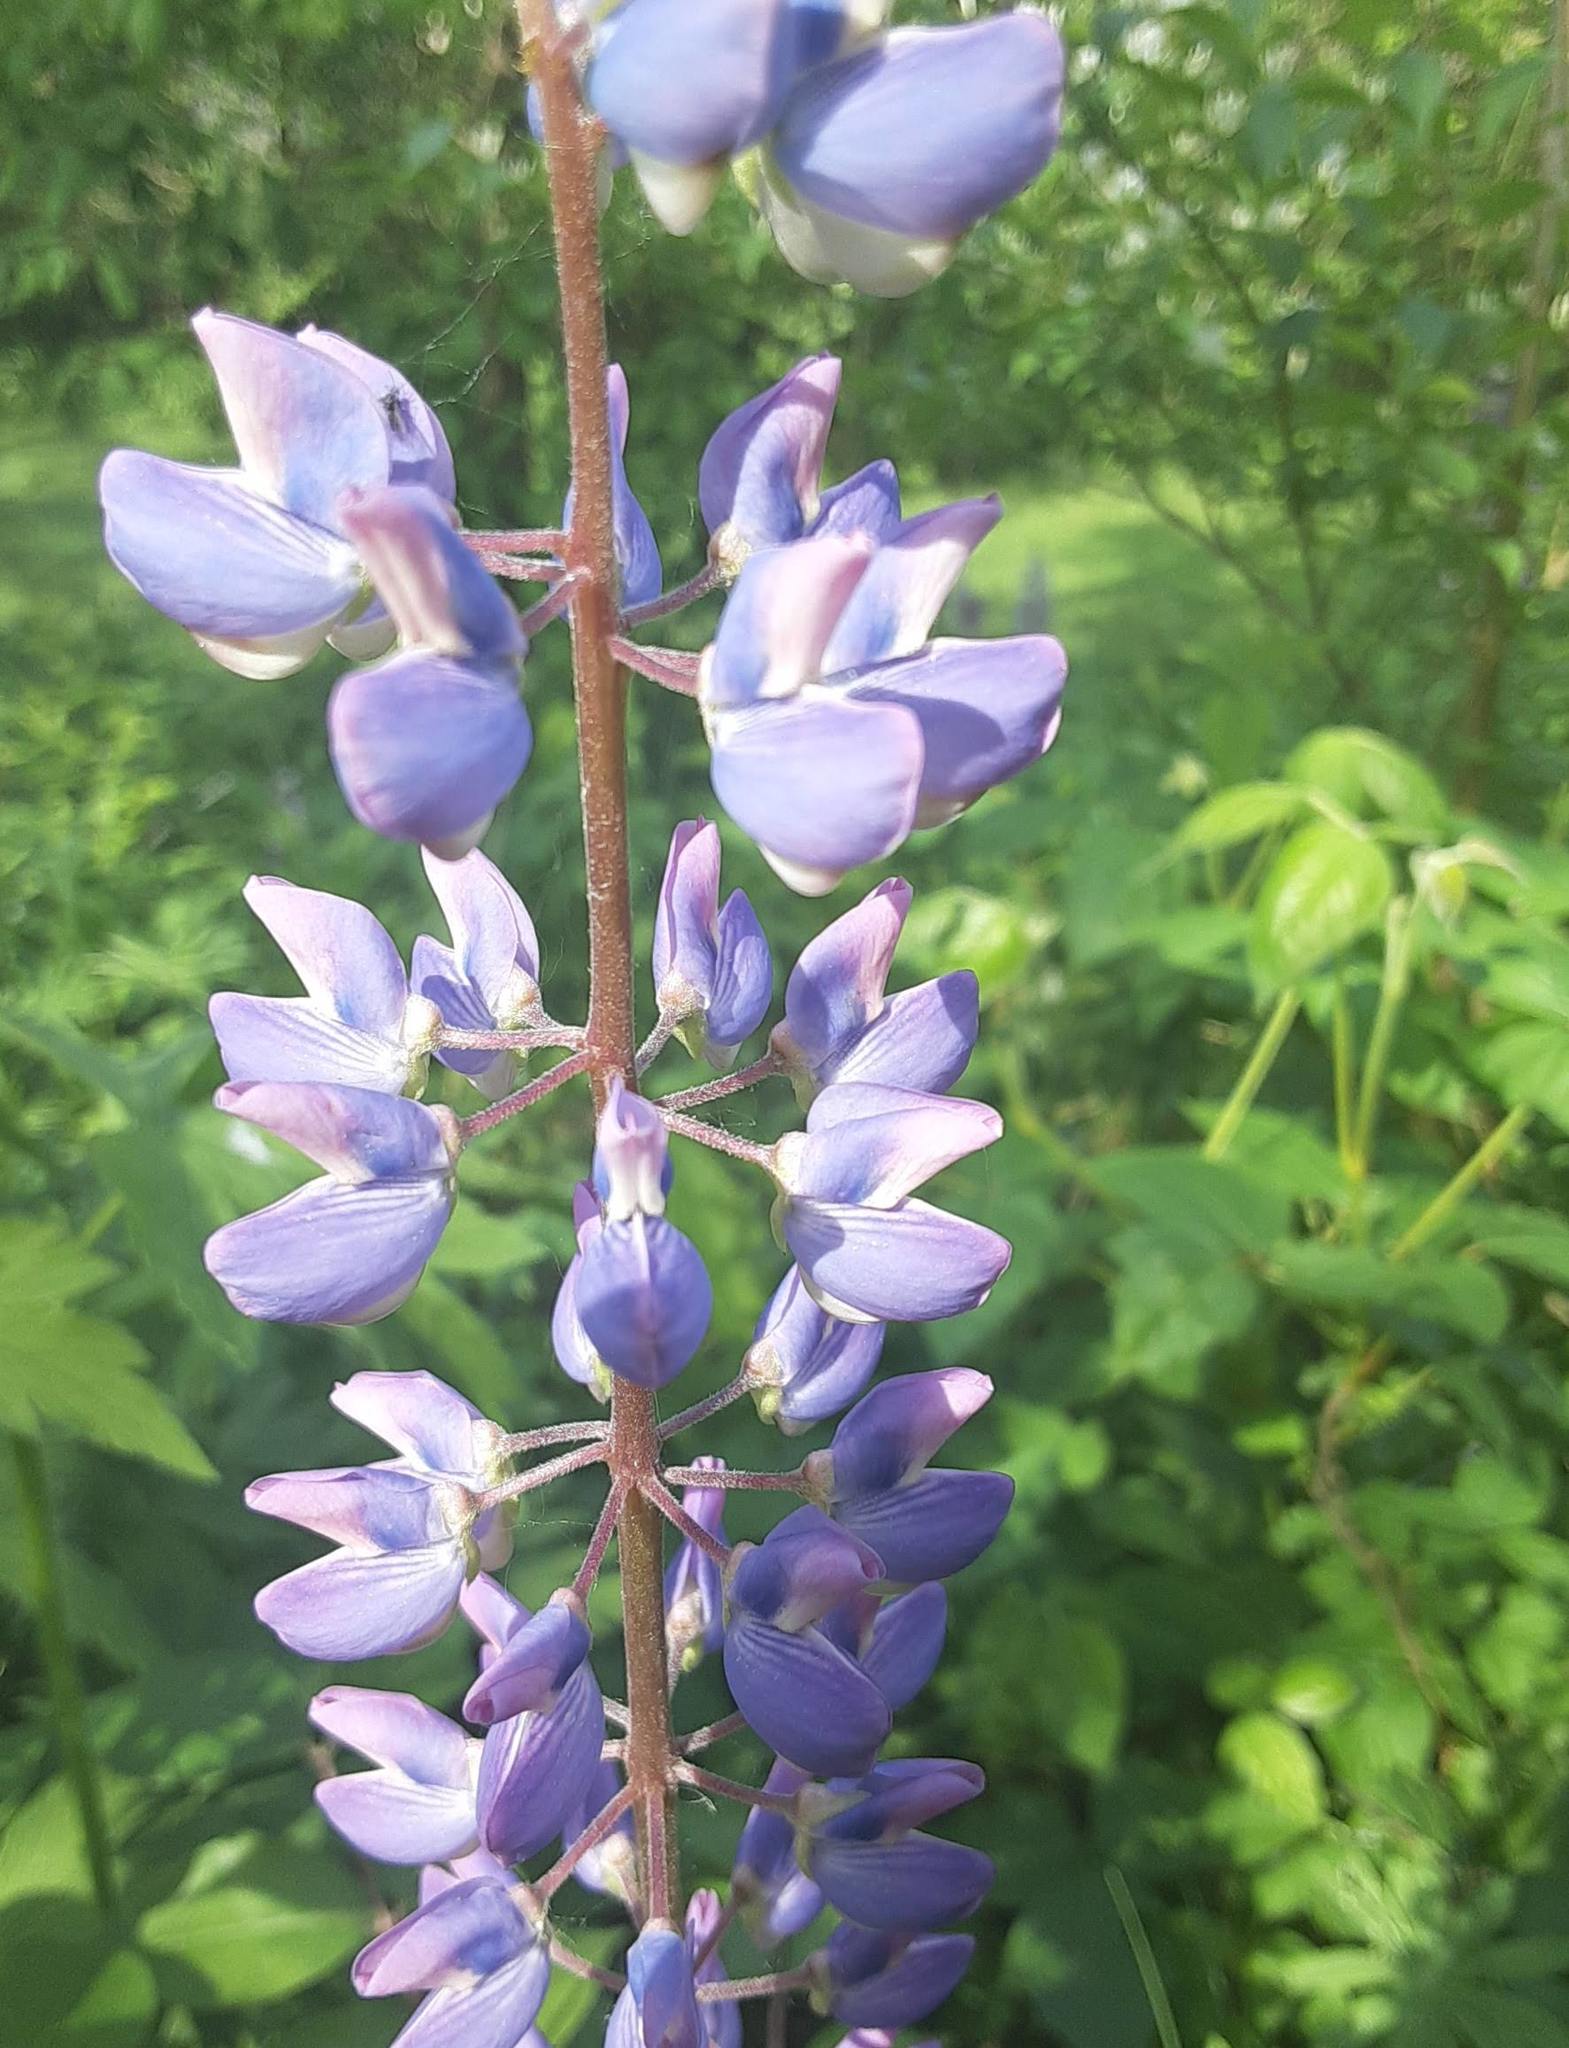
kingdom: Plantae
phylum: Tracheophyta
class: Magnoliopsida
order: Fabales
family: Fabaceae
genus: Lupinus
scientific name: Lupinus polyphyllus
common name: Garden lupin
